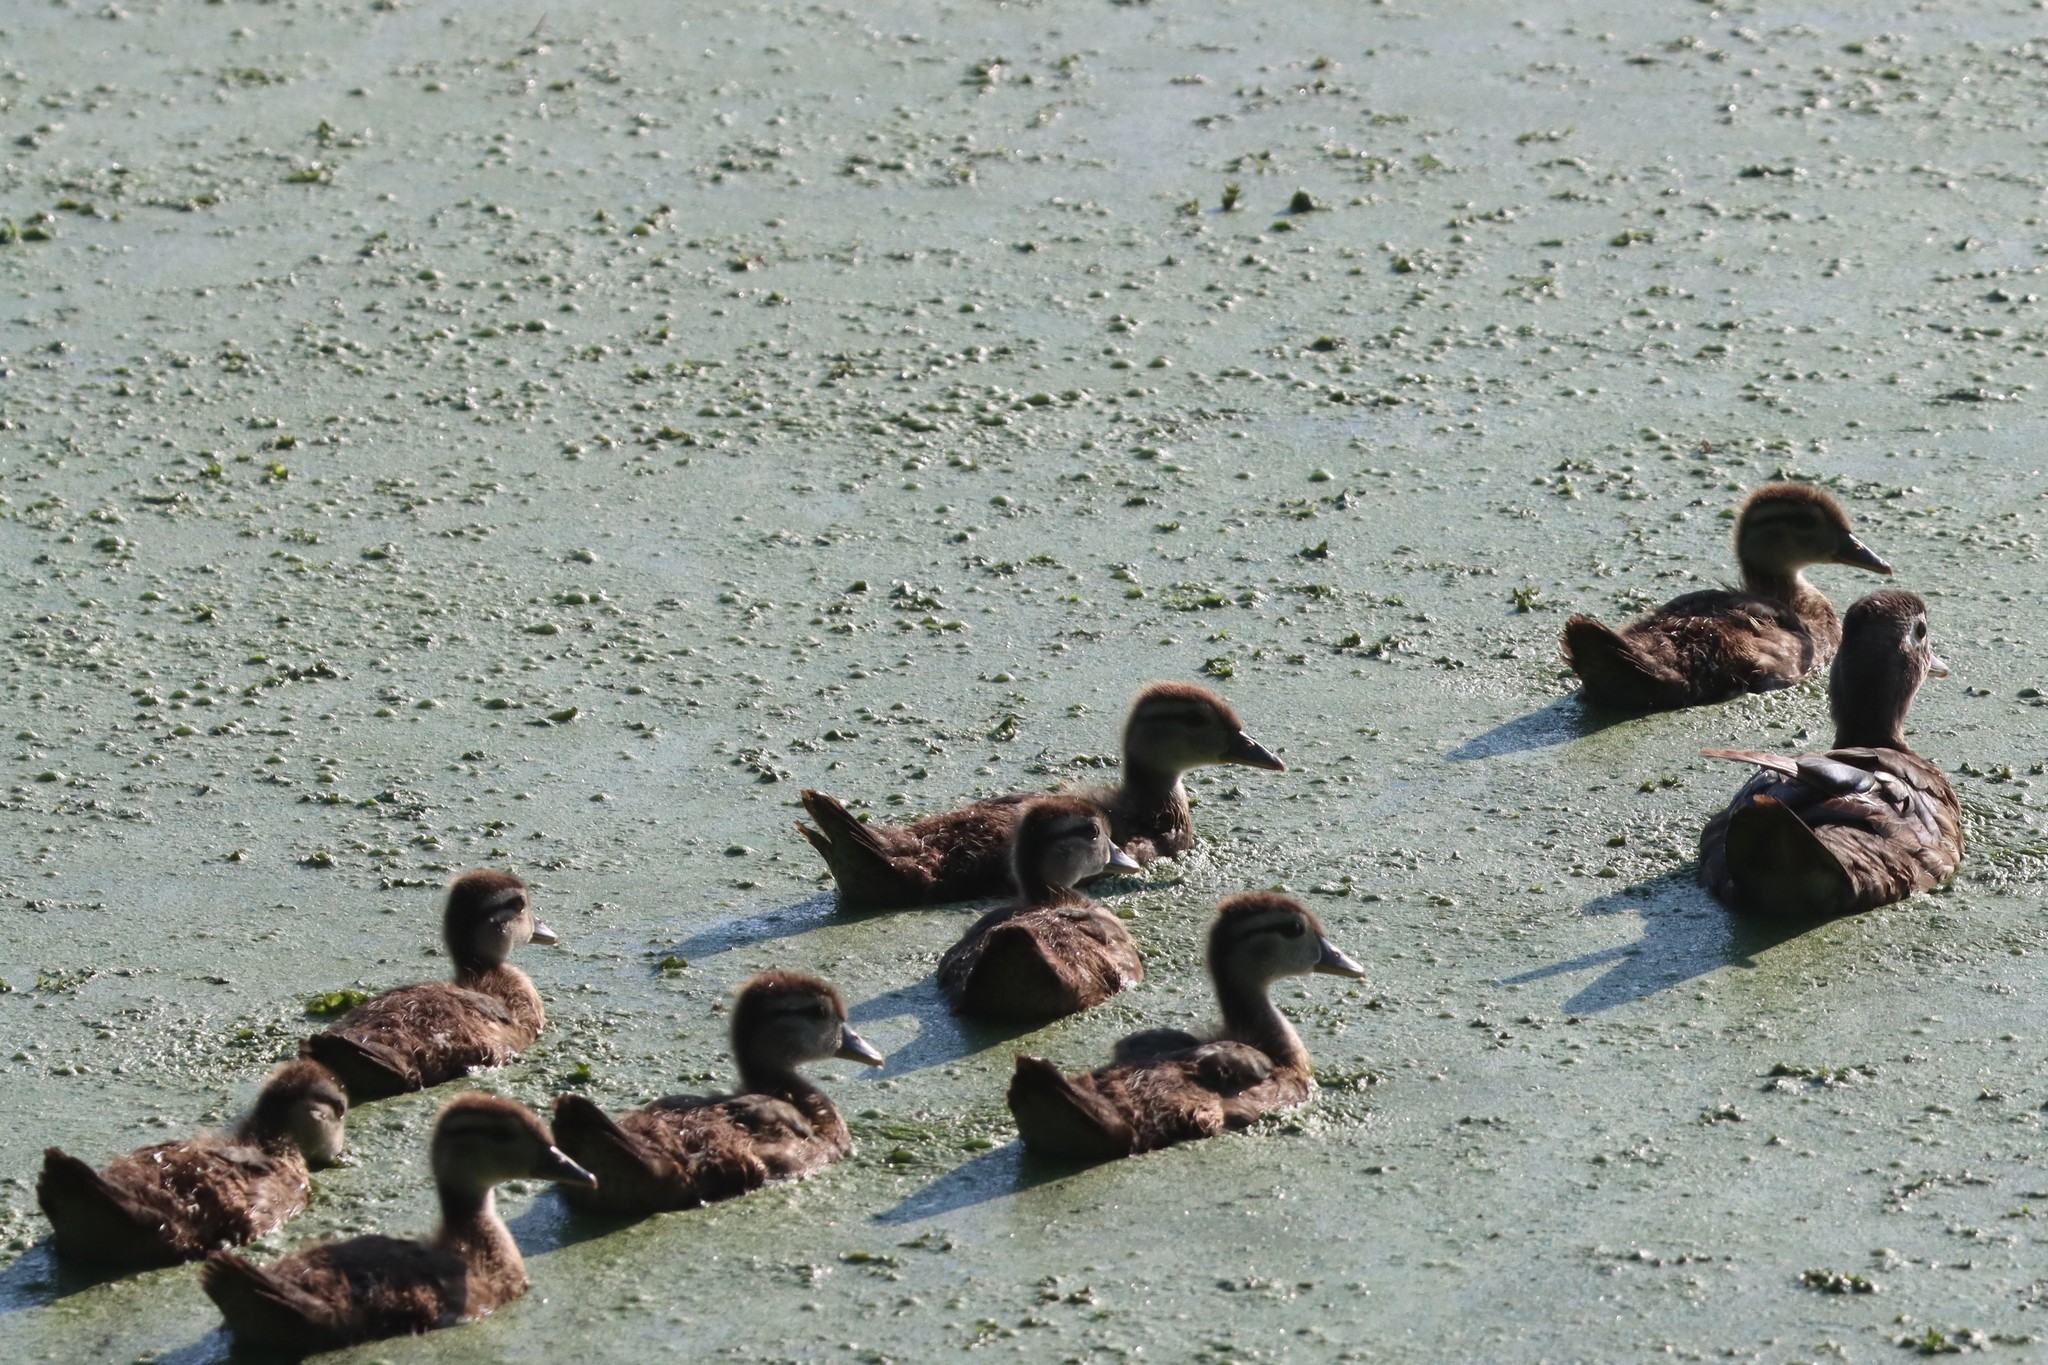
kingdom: Animalia
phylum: Chordata
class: Aves
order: Anseriformes
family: Anatidae
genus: Aix
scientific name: Aix sponsa
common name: Wood duck
